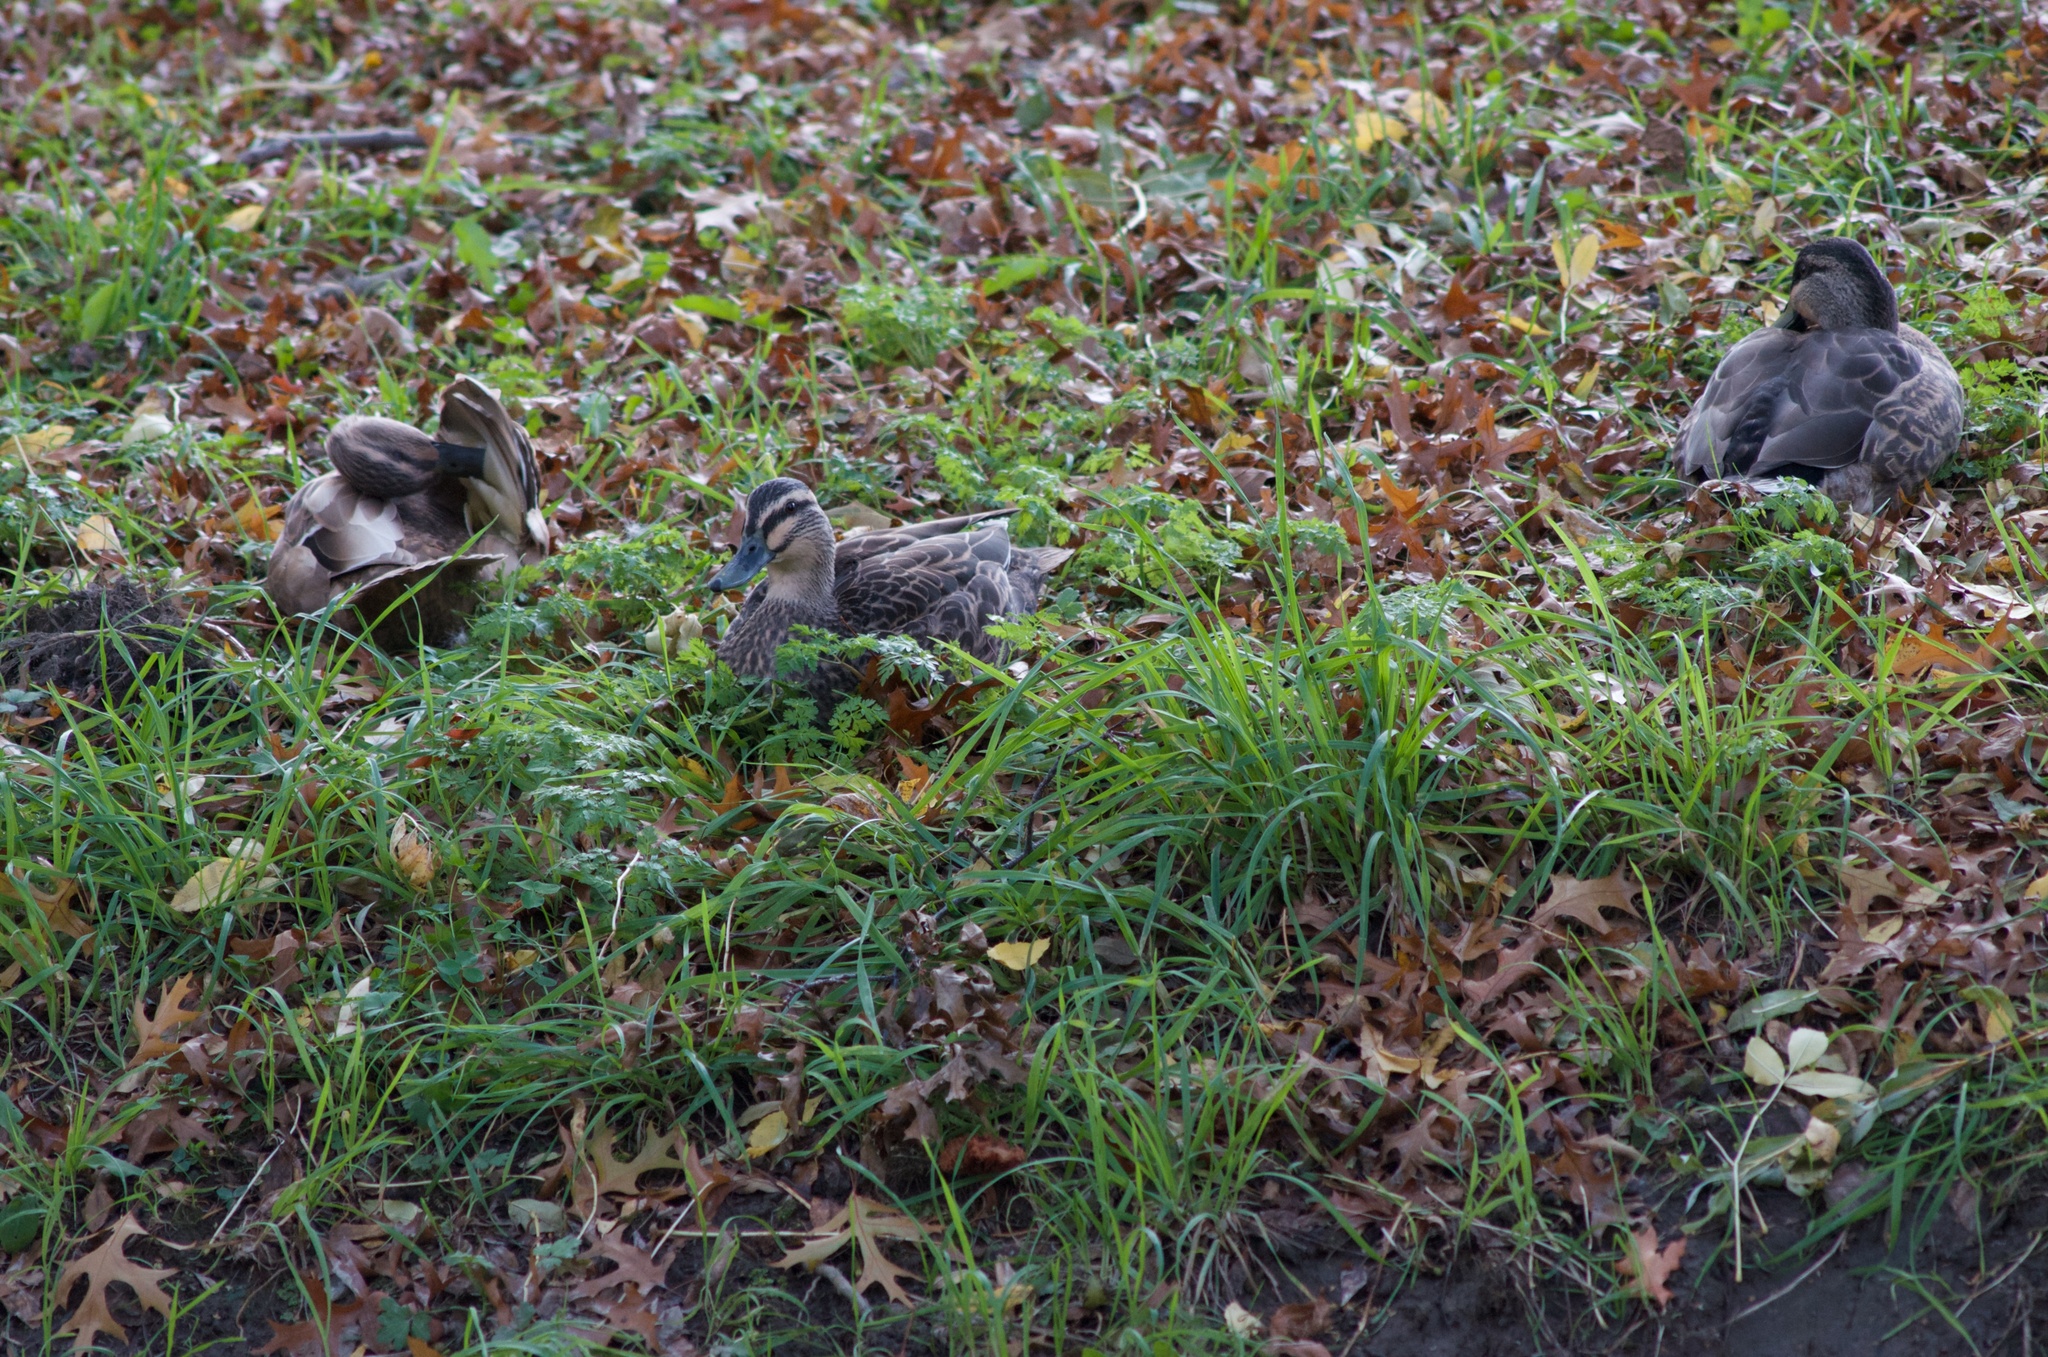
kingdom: Animalia
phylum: Chordata
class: Aves
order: Anseriformes
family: Anatidae
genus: Anas
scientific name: Anas
